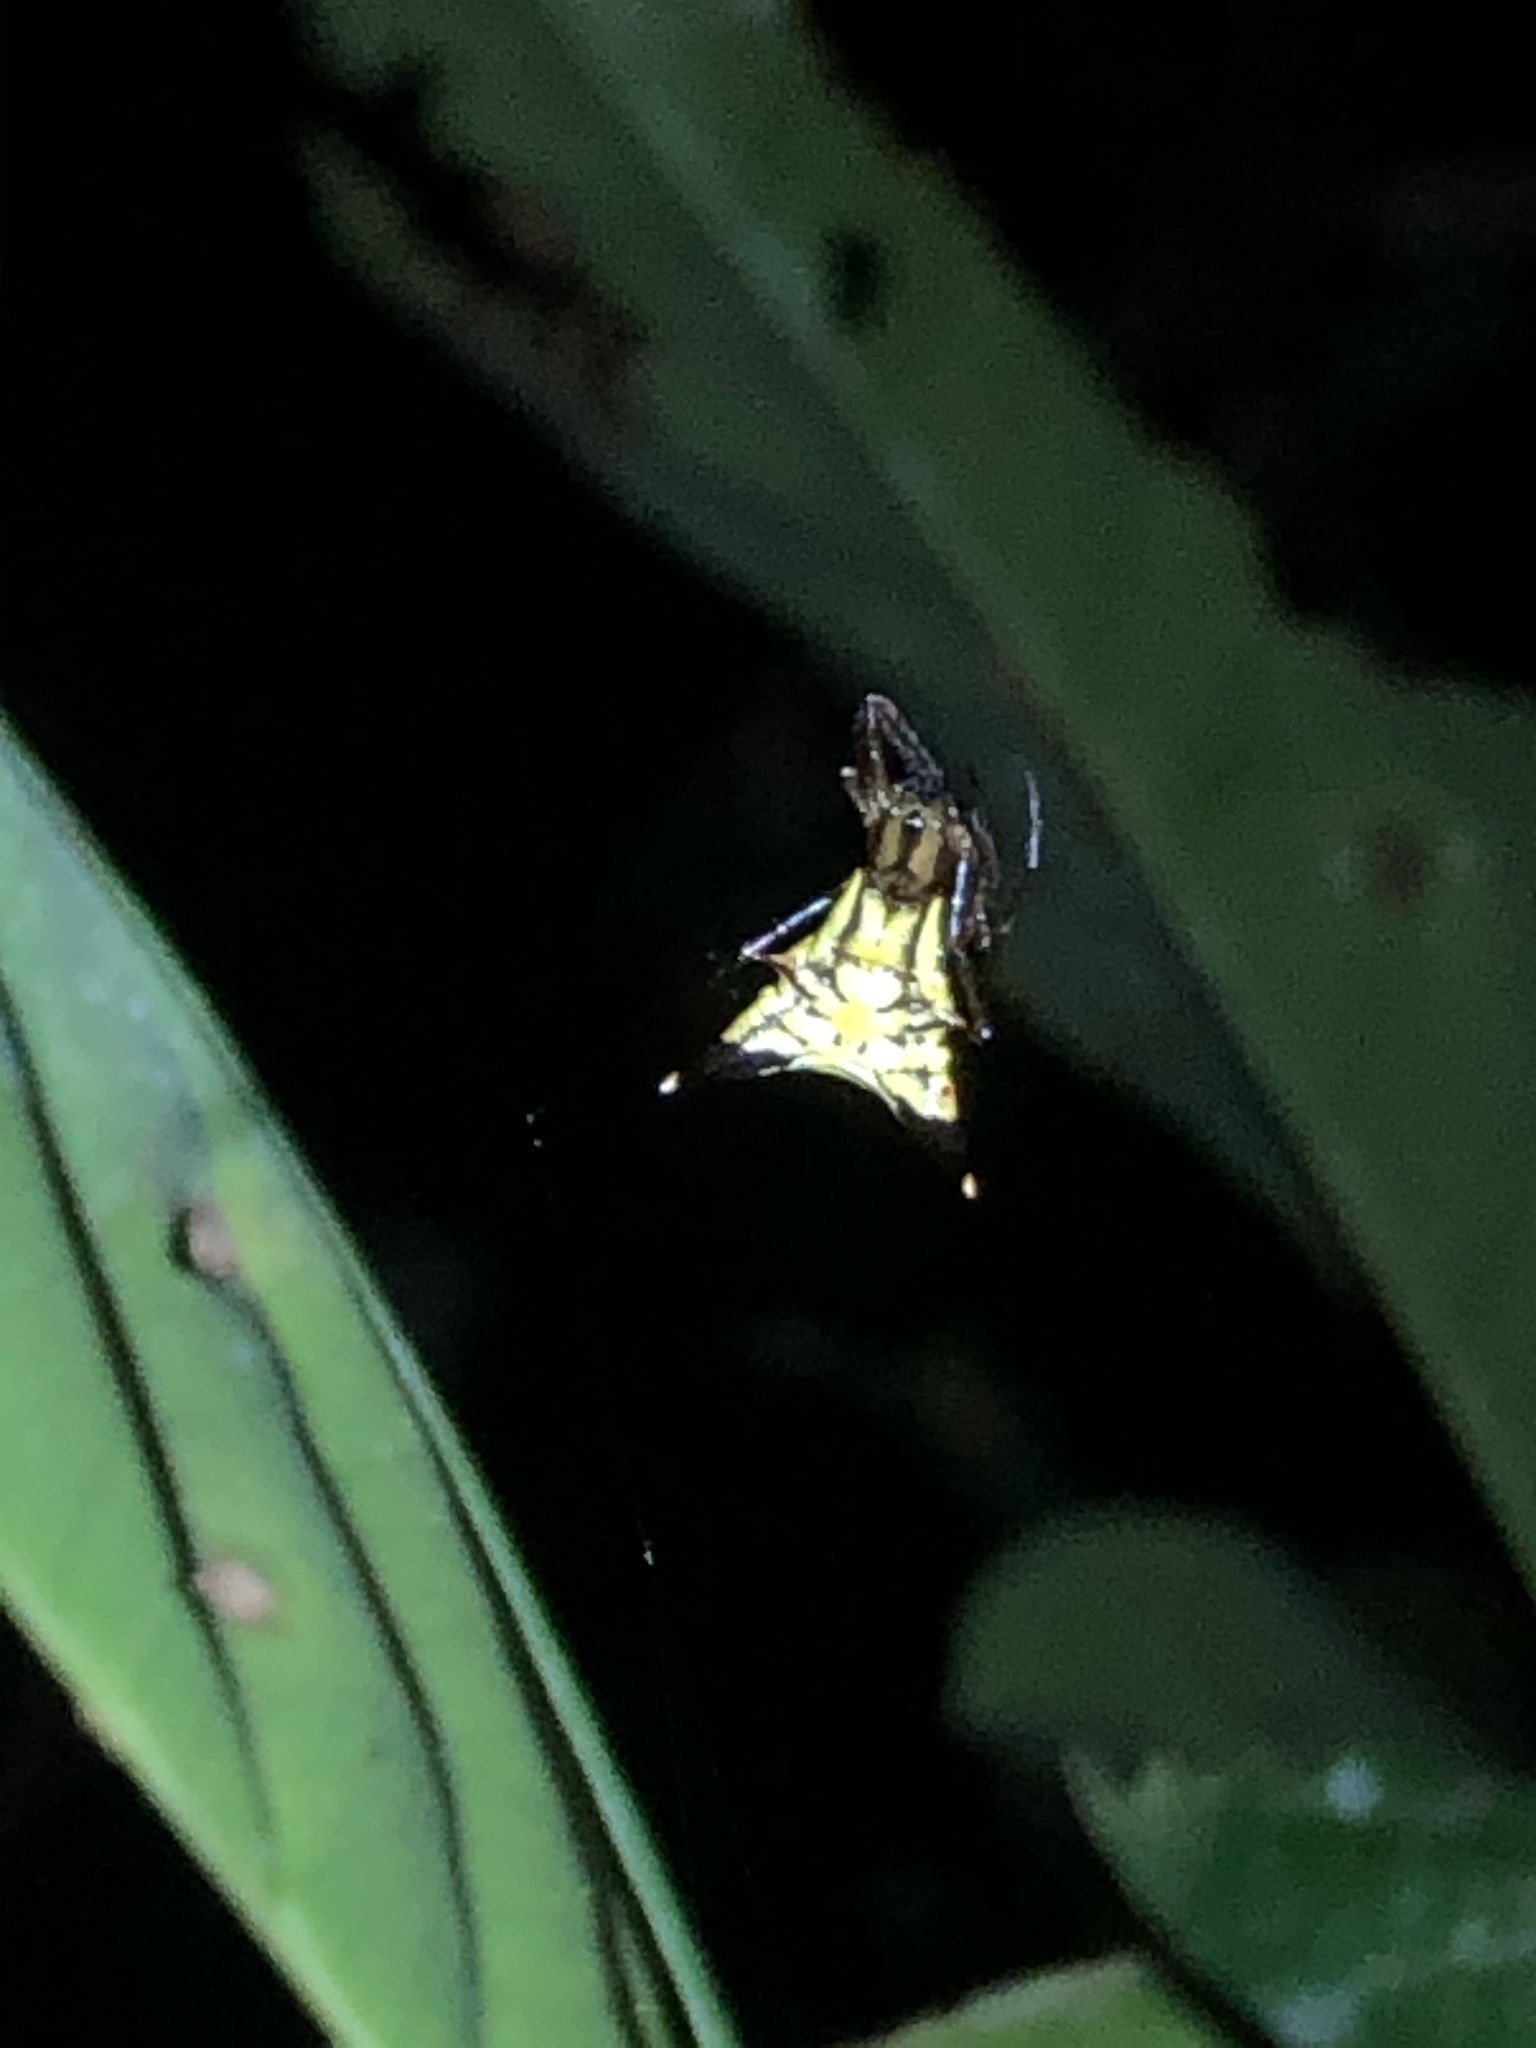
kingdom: Animalia
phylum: Arthropoda
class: Arachnida
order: Araneae
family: Araneidae
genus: Micrathena
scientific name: Micrathena acuta
